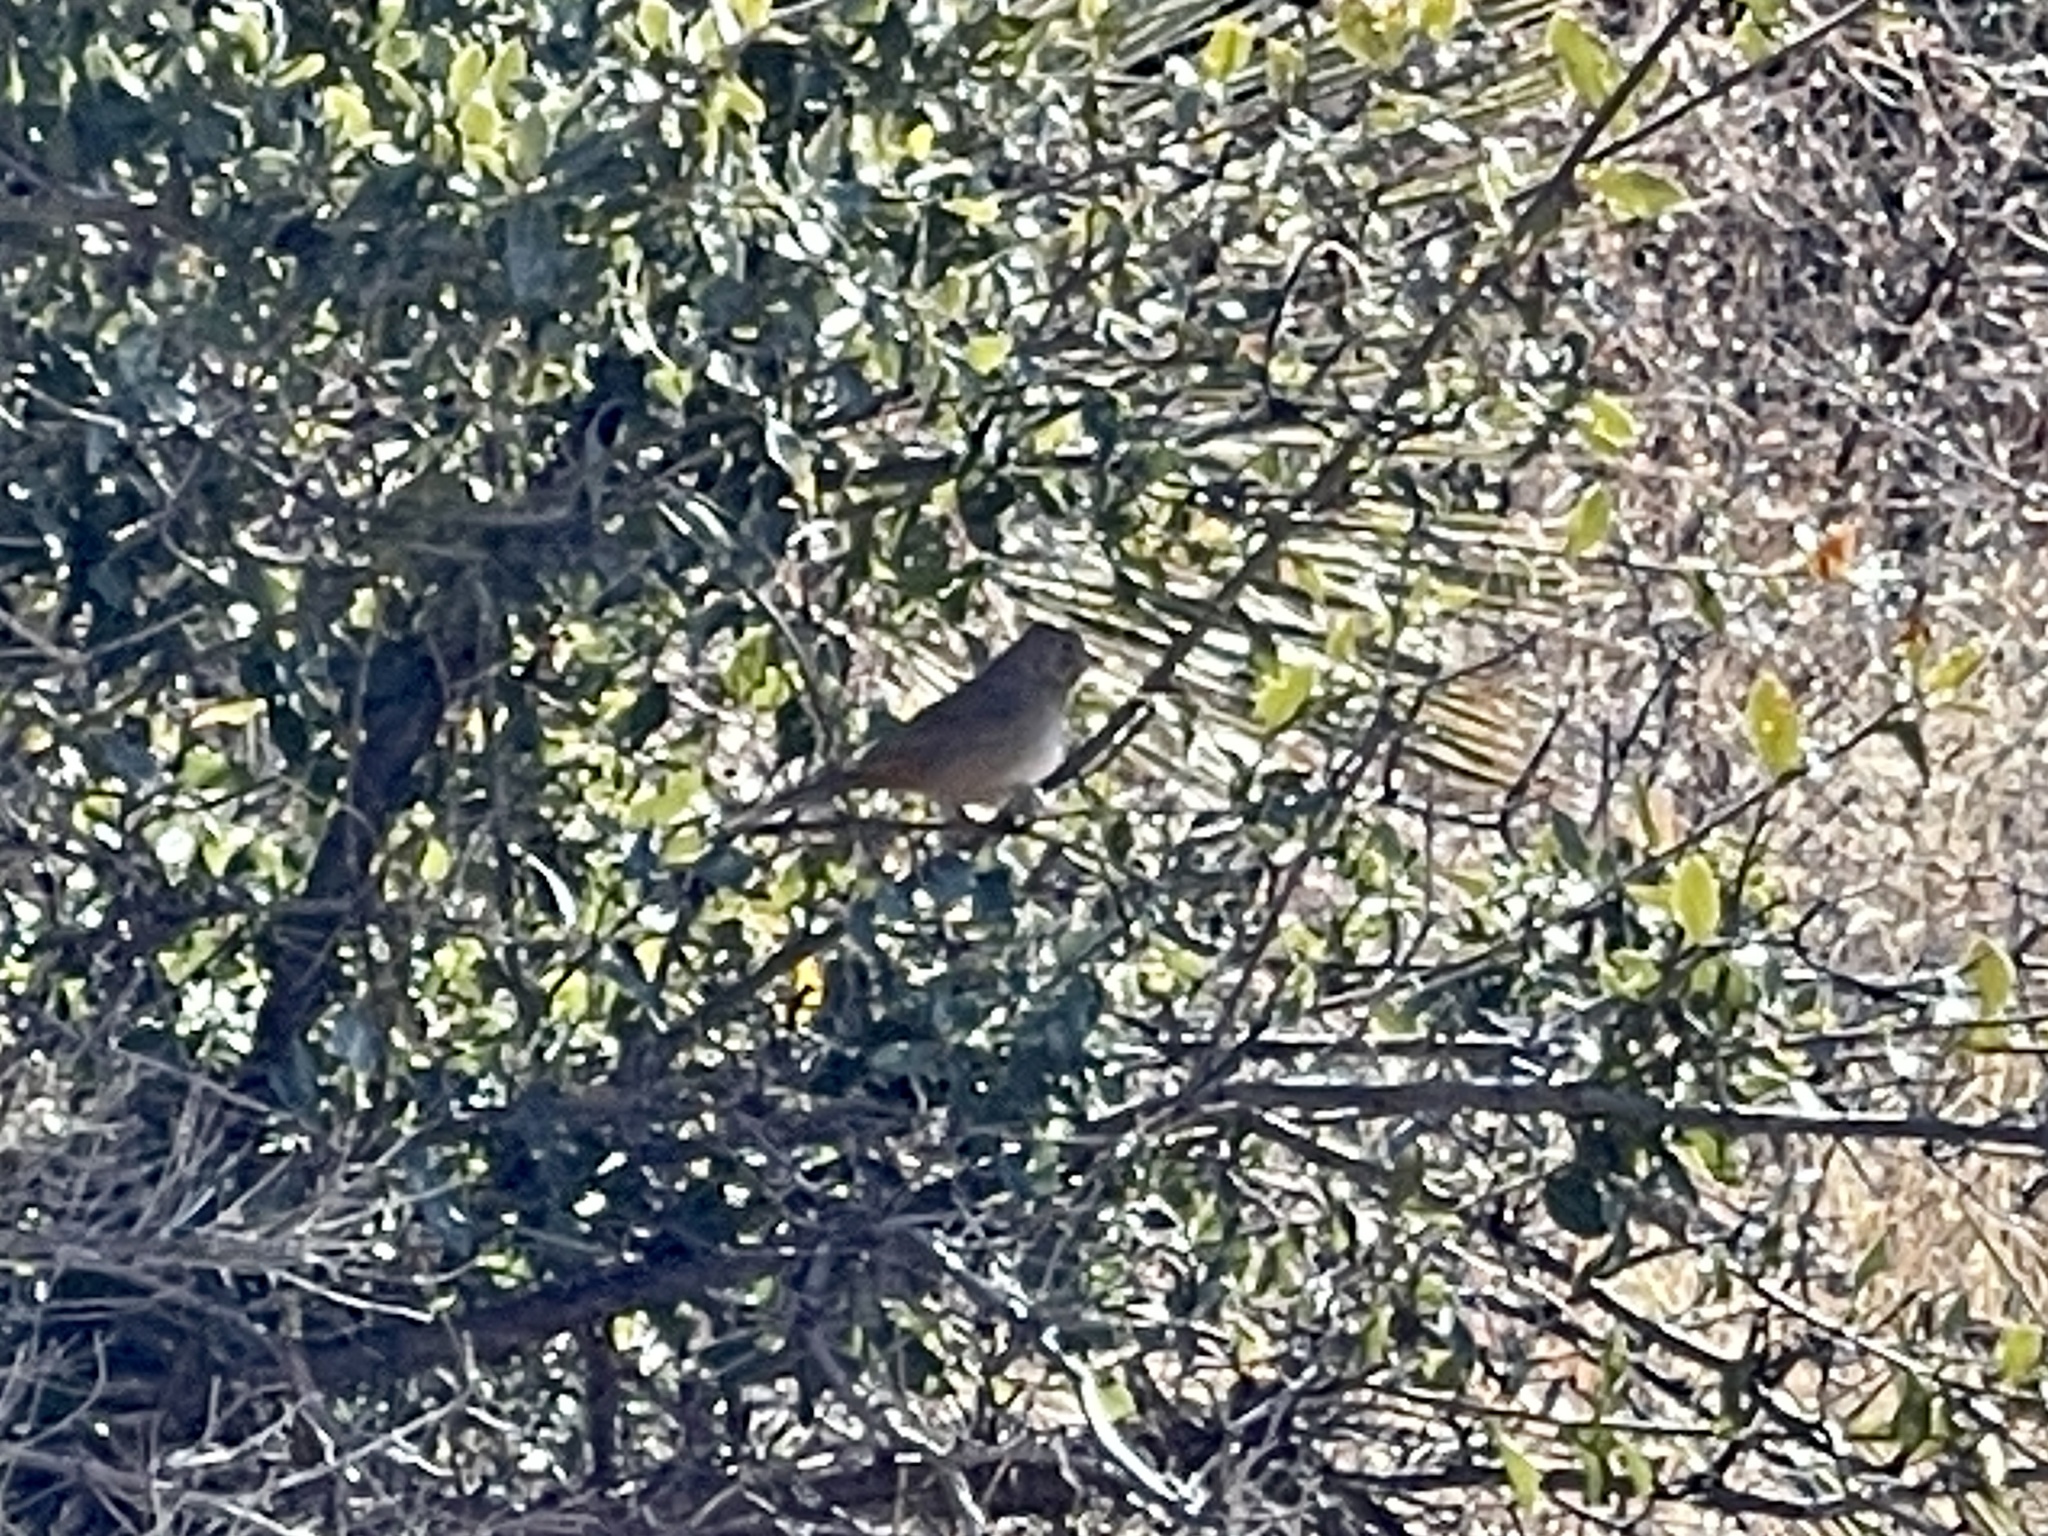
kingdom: Animalia
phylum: Chordata
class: Aves
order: Passeriformes
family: Passerellidae
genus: Melozone
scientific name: Melozone fusca
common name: Canyon towhee
